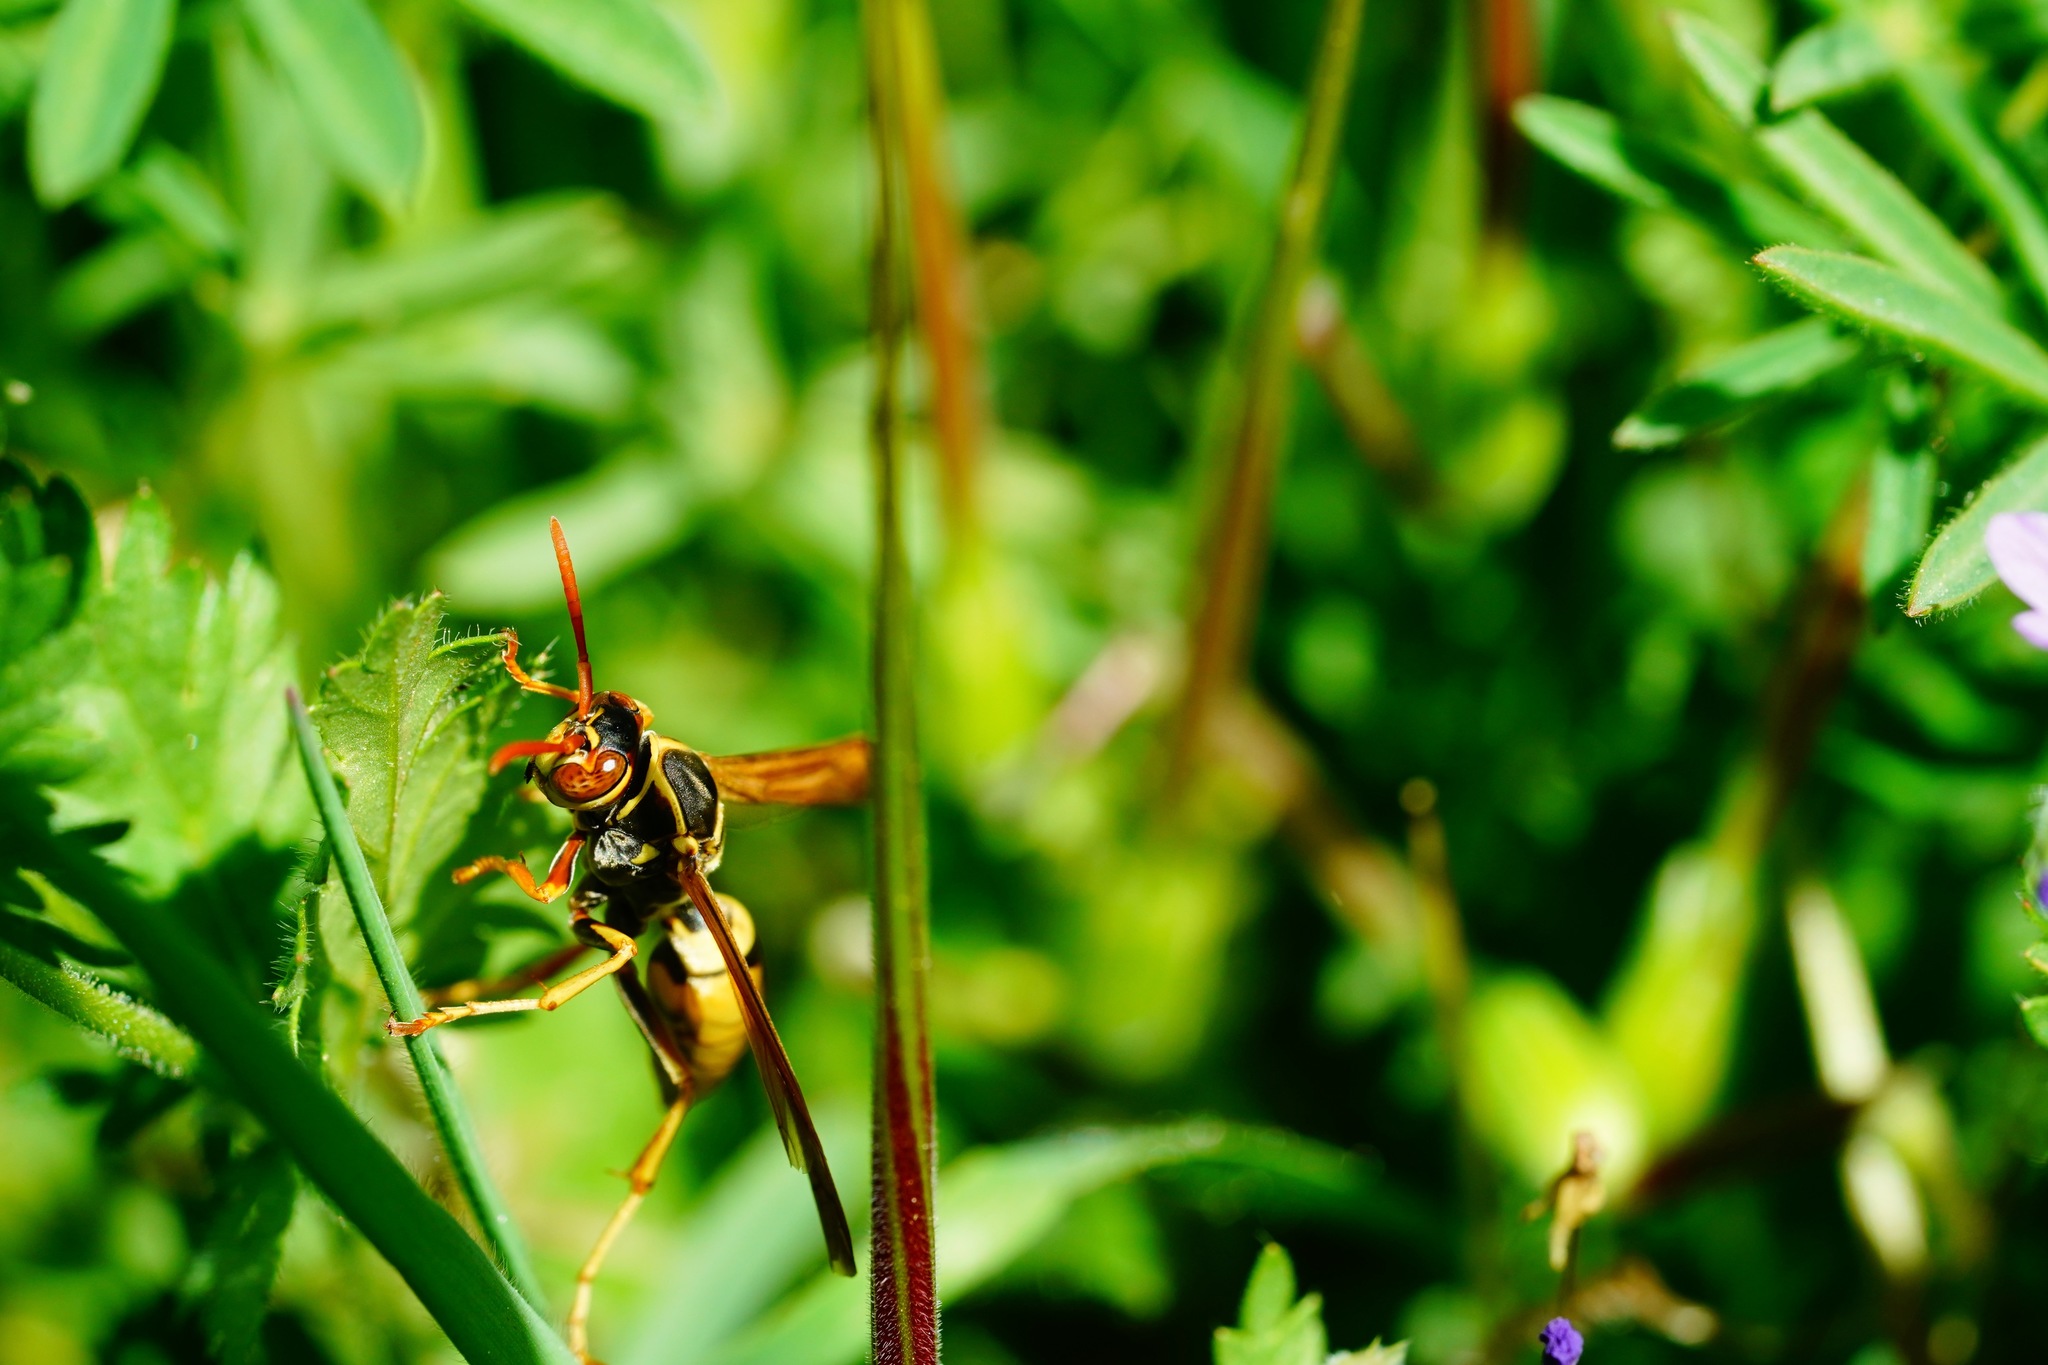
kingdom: Animalia
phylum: Arthropoda
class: Insecta
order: Hymenoptera
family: Eumenidae
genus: Polistes
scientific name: Polistes aurifer
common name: Paper wasp
